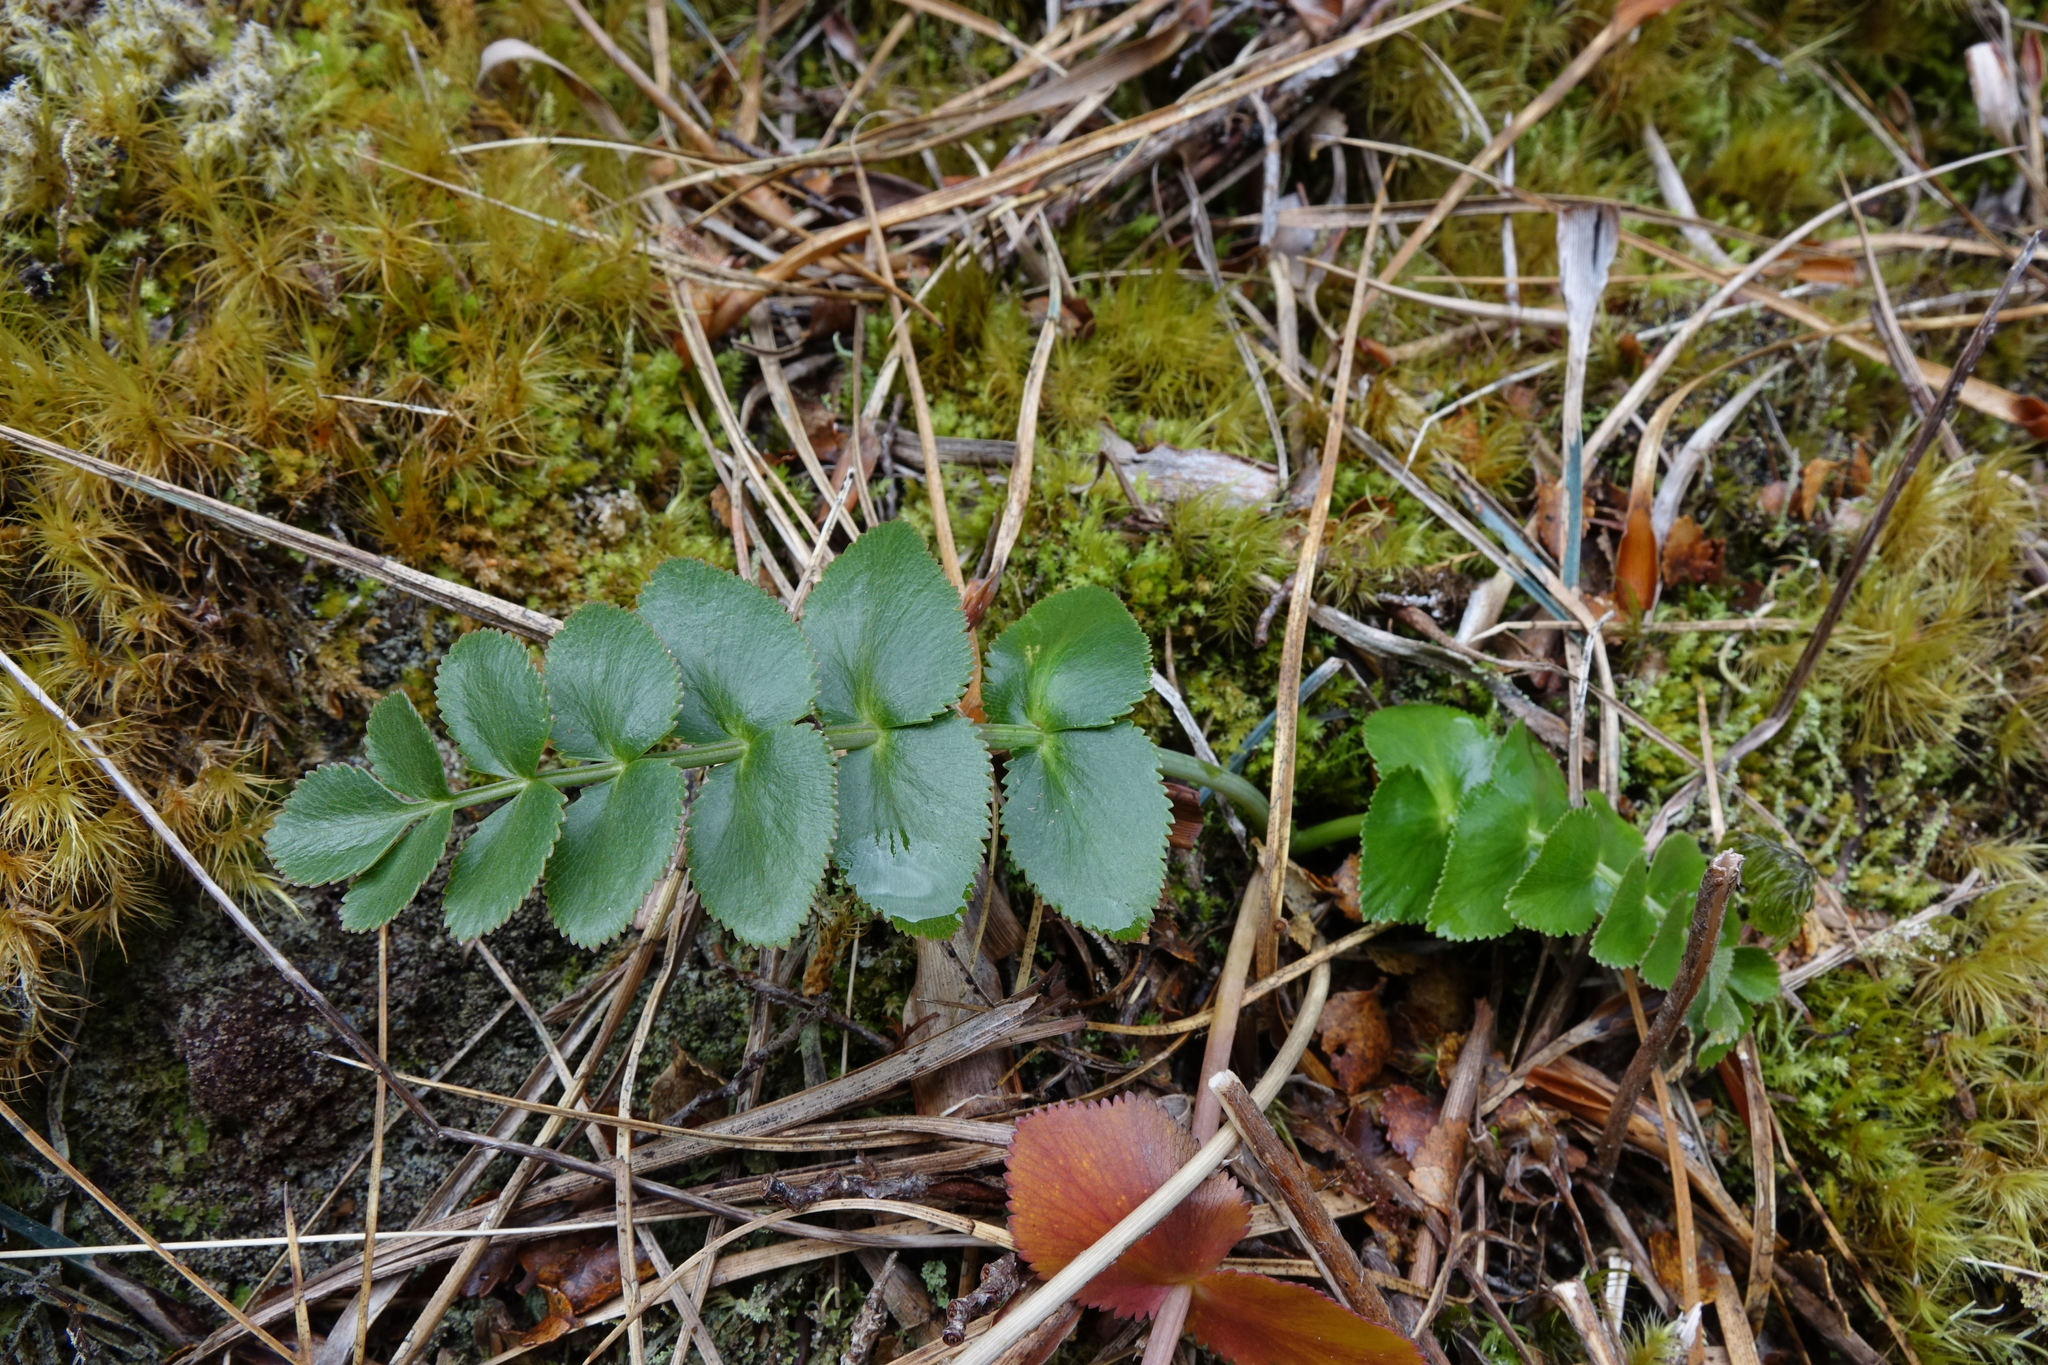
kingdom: Plantae
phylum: Tracheophyta
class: Magnoliopsida
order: Apiales
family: Apiaceae
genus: Gingidia
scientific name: Gingidia montana
